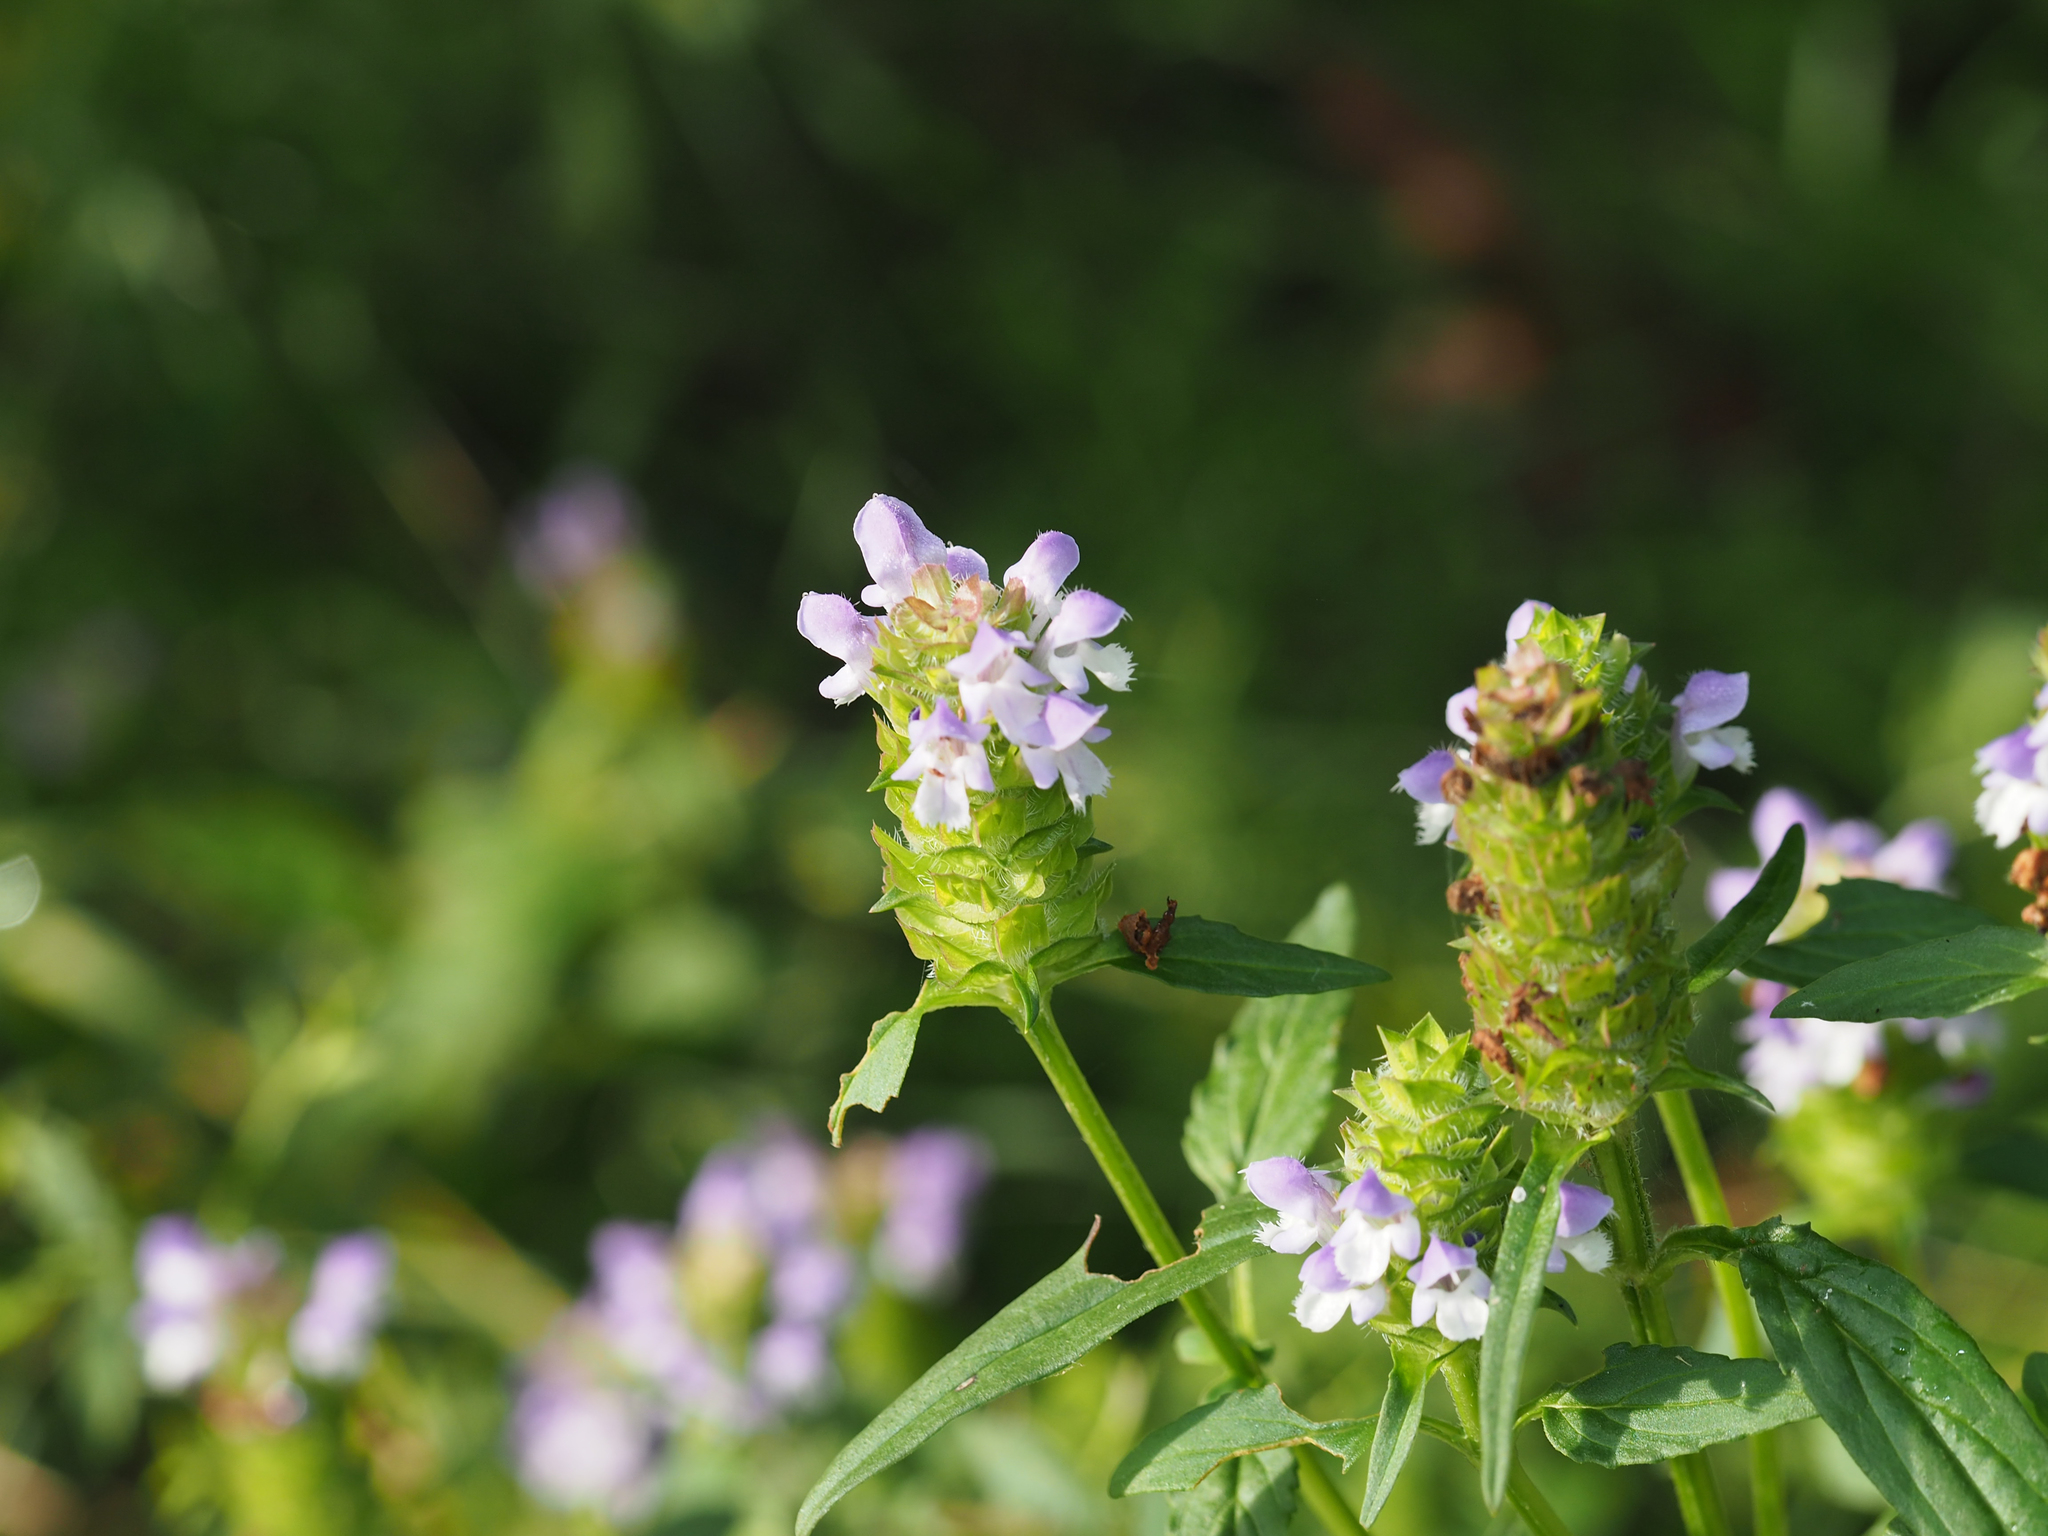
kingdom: Plantae
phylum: Tracheophyta
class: Magnoliopsida
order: Lamiales
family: Lamiaceae
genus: Prunella
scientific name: Prunella vulgaris
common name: Heal-all
